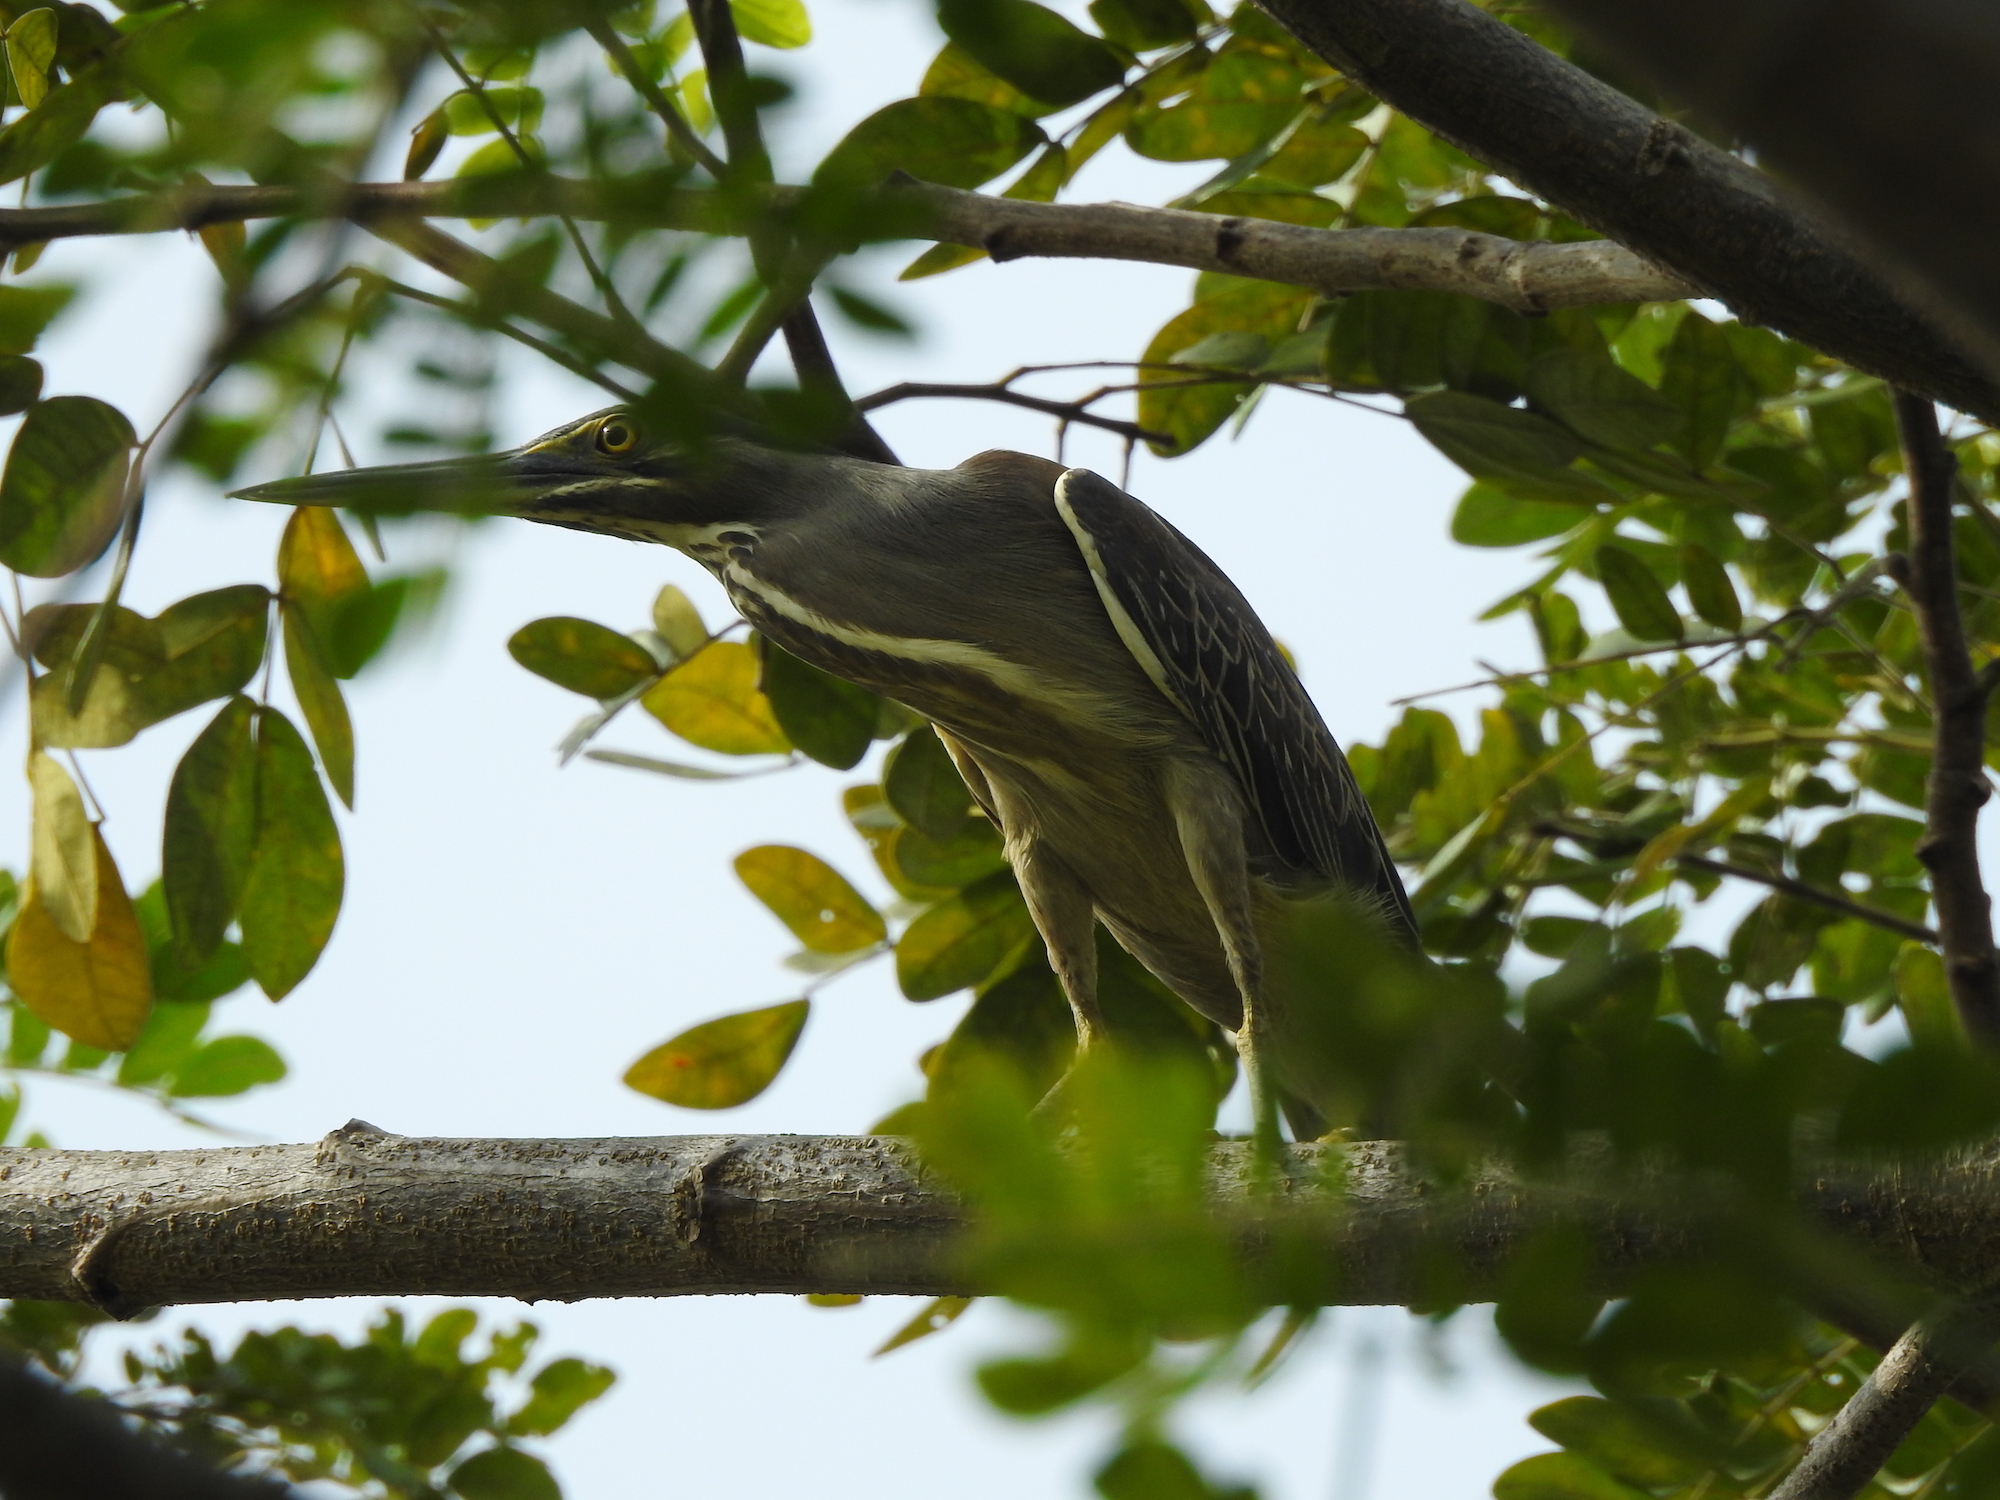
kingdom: Animalia
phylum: Chordata
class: Aves
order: Pelecaniformes
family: Ardeidae
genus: Butorides
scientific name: Butorides striata
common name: Striated heron
